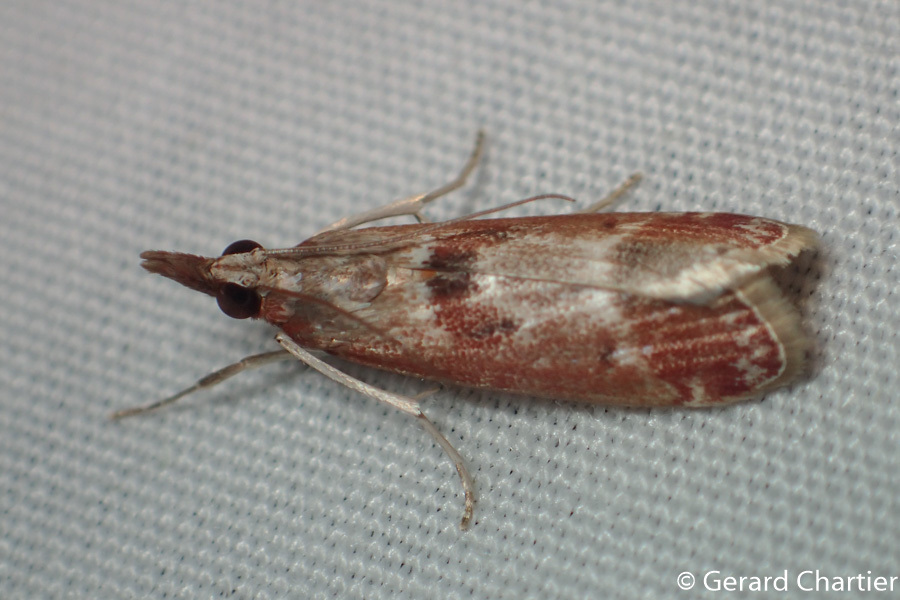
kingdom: Animalia
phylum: Arthropoda
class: Insecta
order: Lepidoptera
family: Crambidae
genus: Syntonarcha
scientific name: Syntonarcha iriastis
